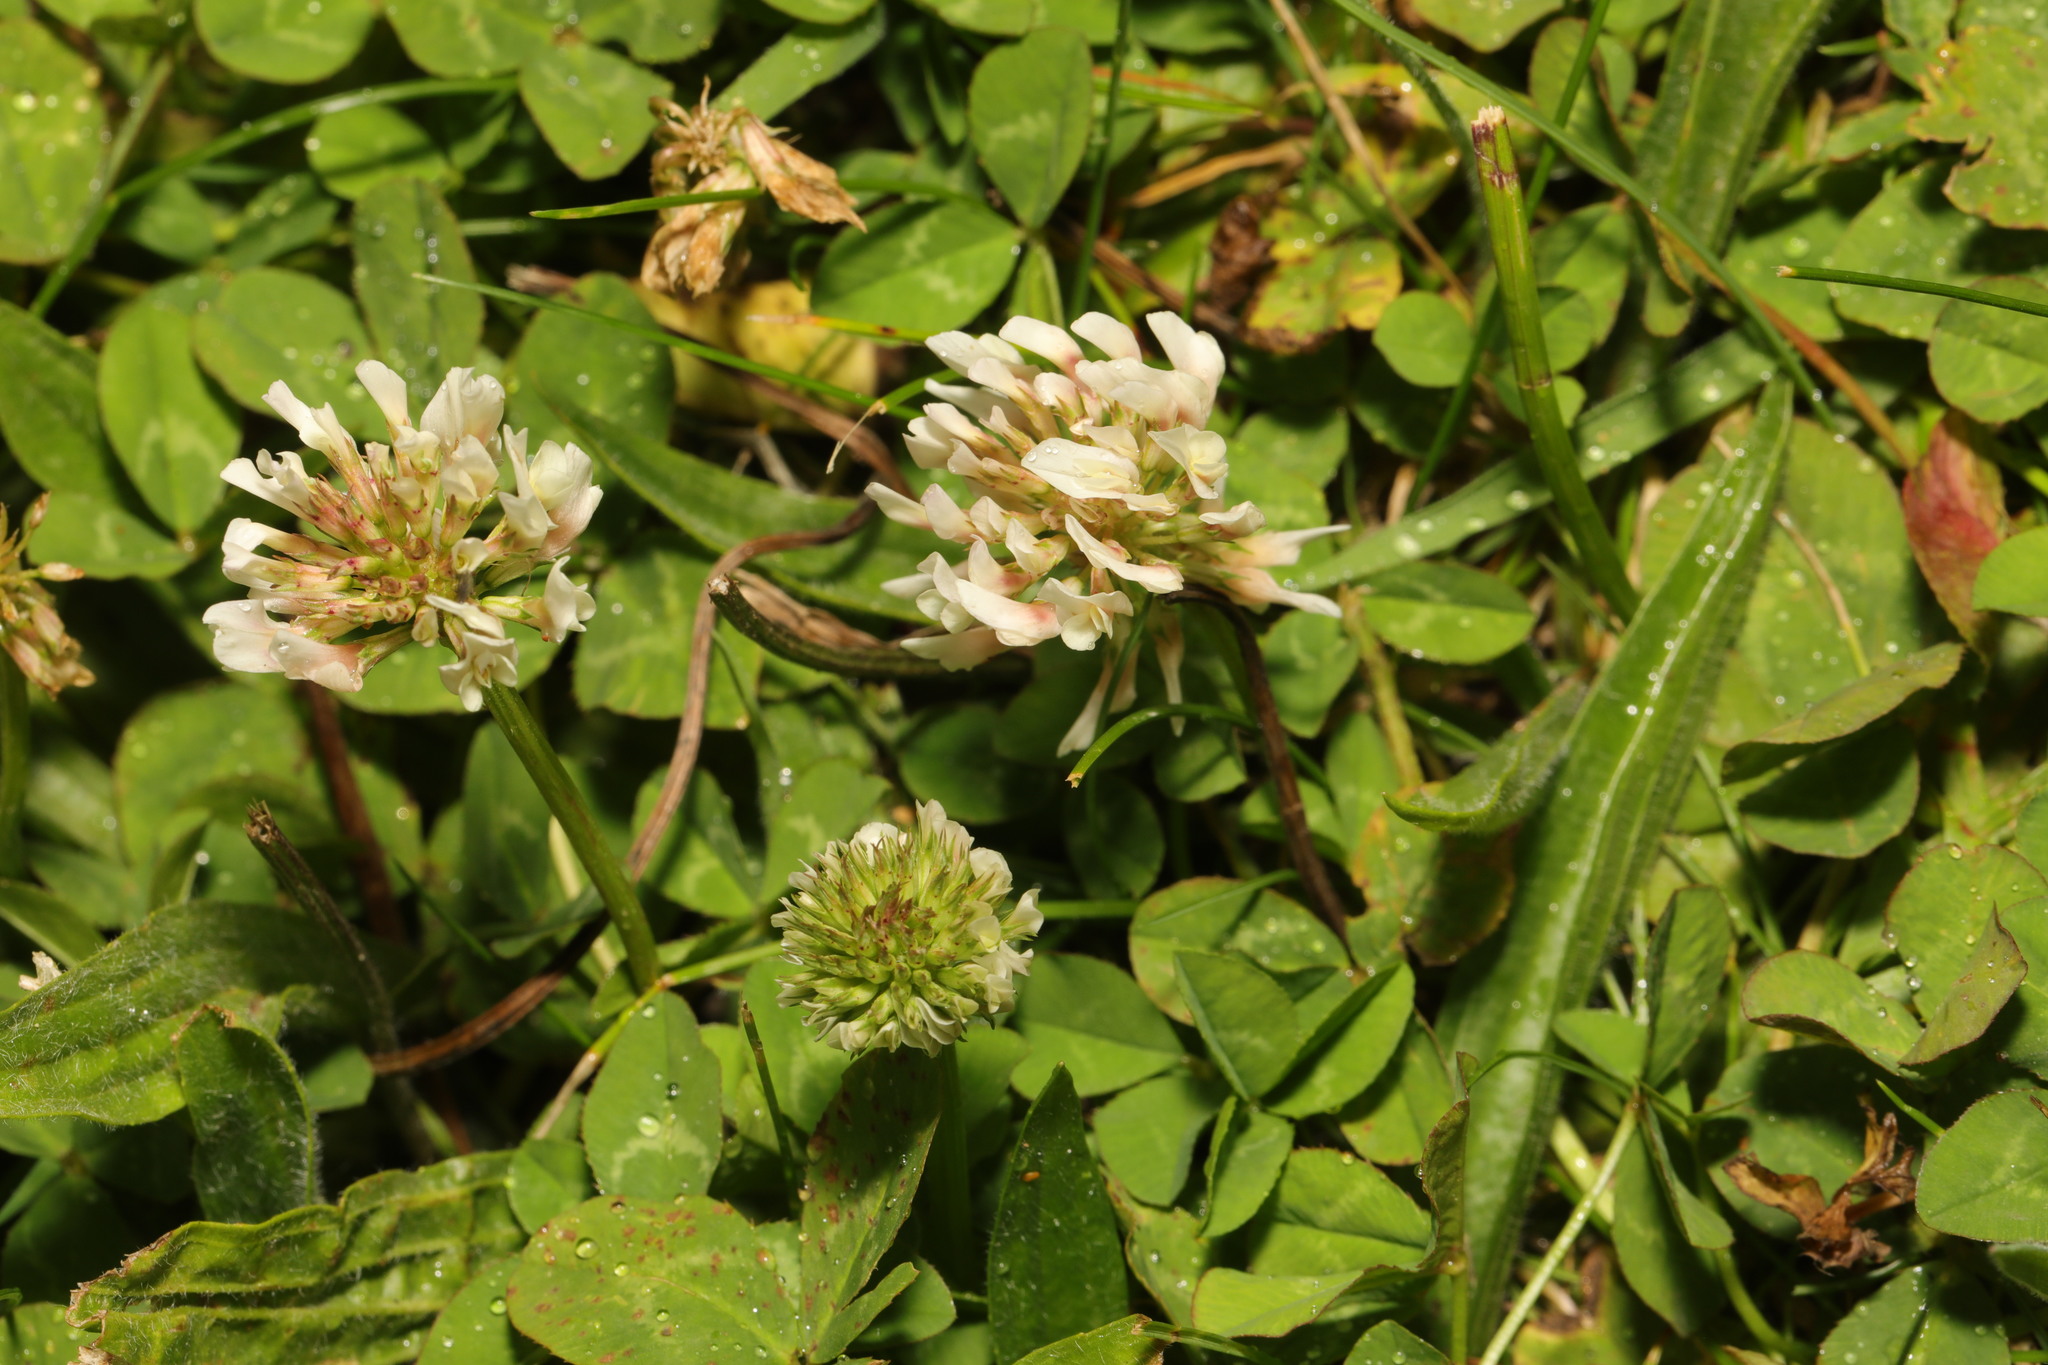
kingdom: Plantae
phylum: Tracheophyta
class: Magnoliopsida
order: Fabales
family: Fabaceae
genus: Trifolium
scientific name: Trifolium repens
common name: White clover
